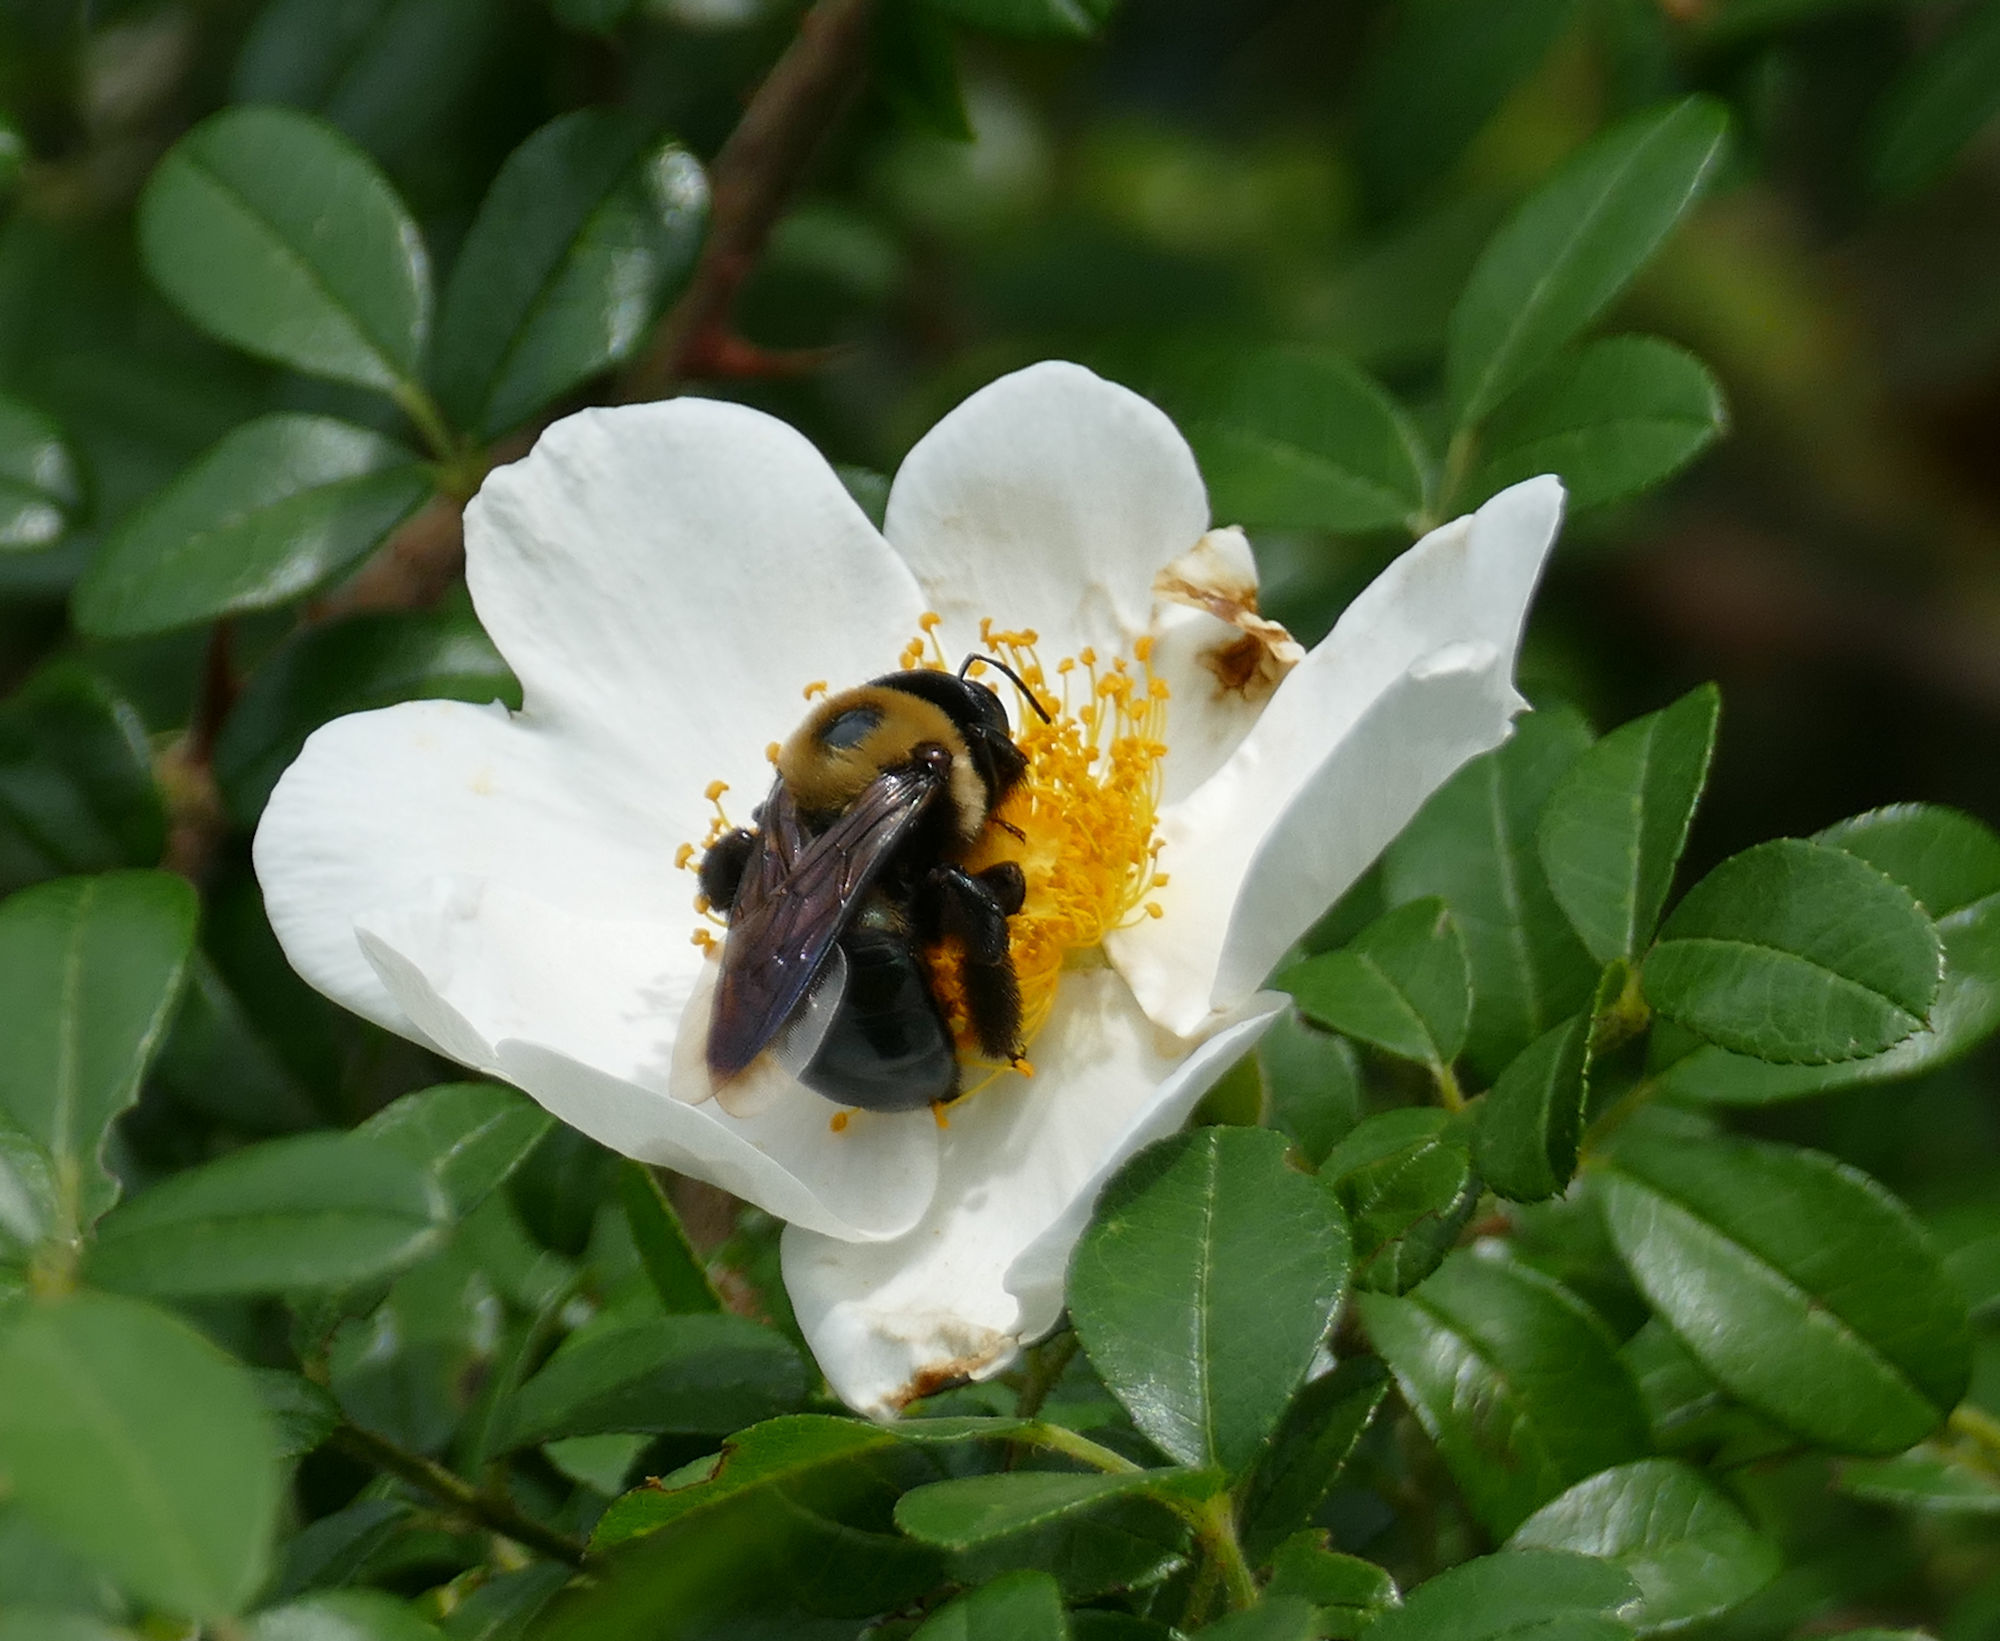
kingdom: Animalia
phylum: Arthropoda
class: Insecta
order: Hymenoptera
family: Apidae
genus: Xylocopa
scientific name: Xylocopa virginica
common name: Carpenter bee
